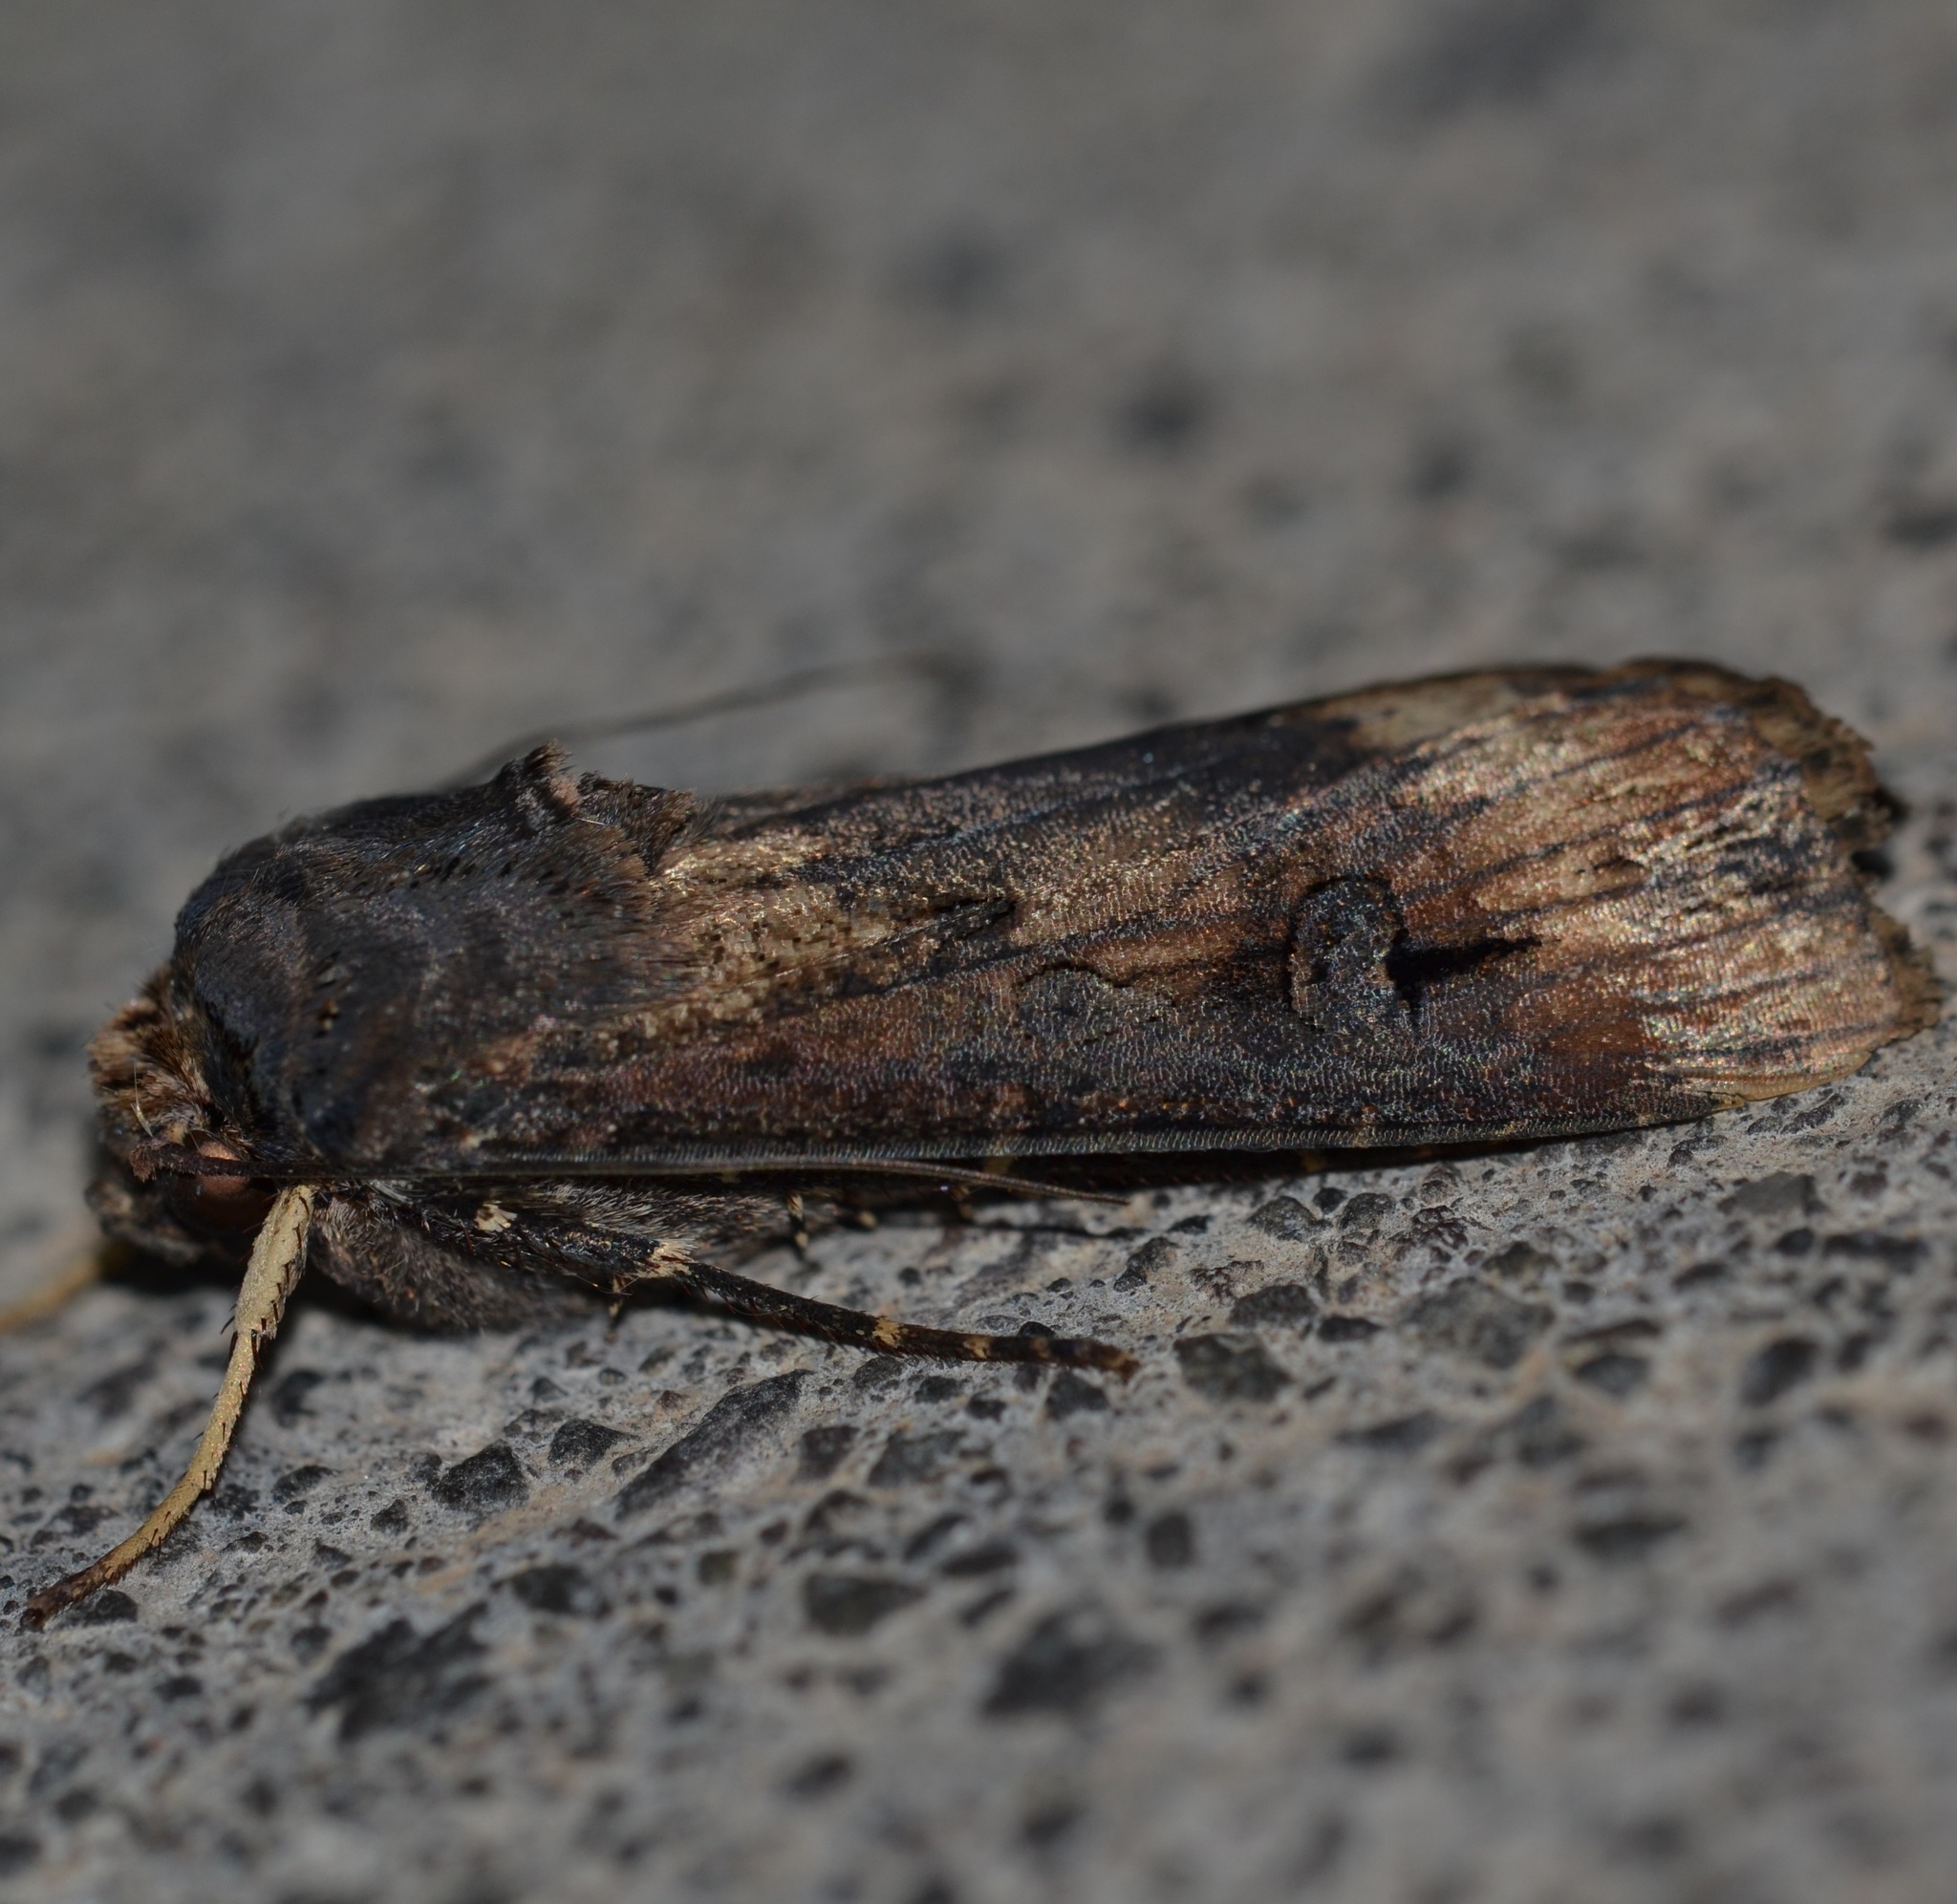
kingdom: Animalia
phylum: Arthropoda
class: Insecta
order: Lepidoptera
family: Noctuidae
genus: Agrotis
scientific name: Agrotis ipsilon
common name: Dark sword-grass
